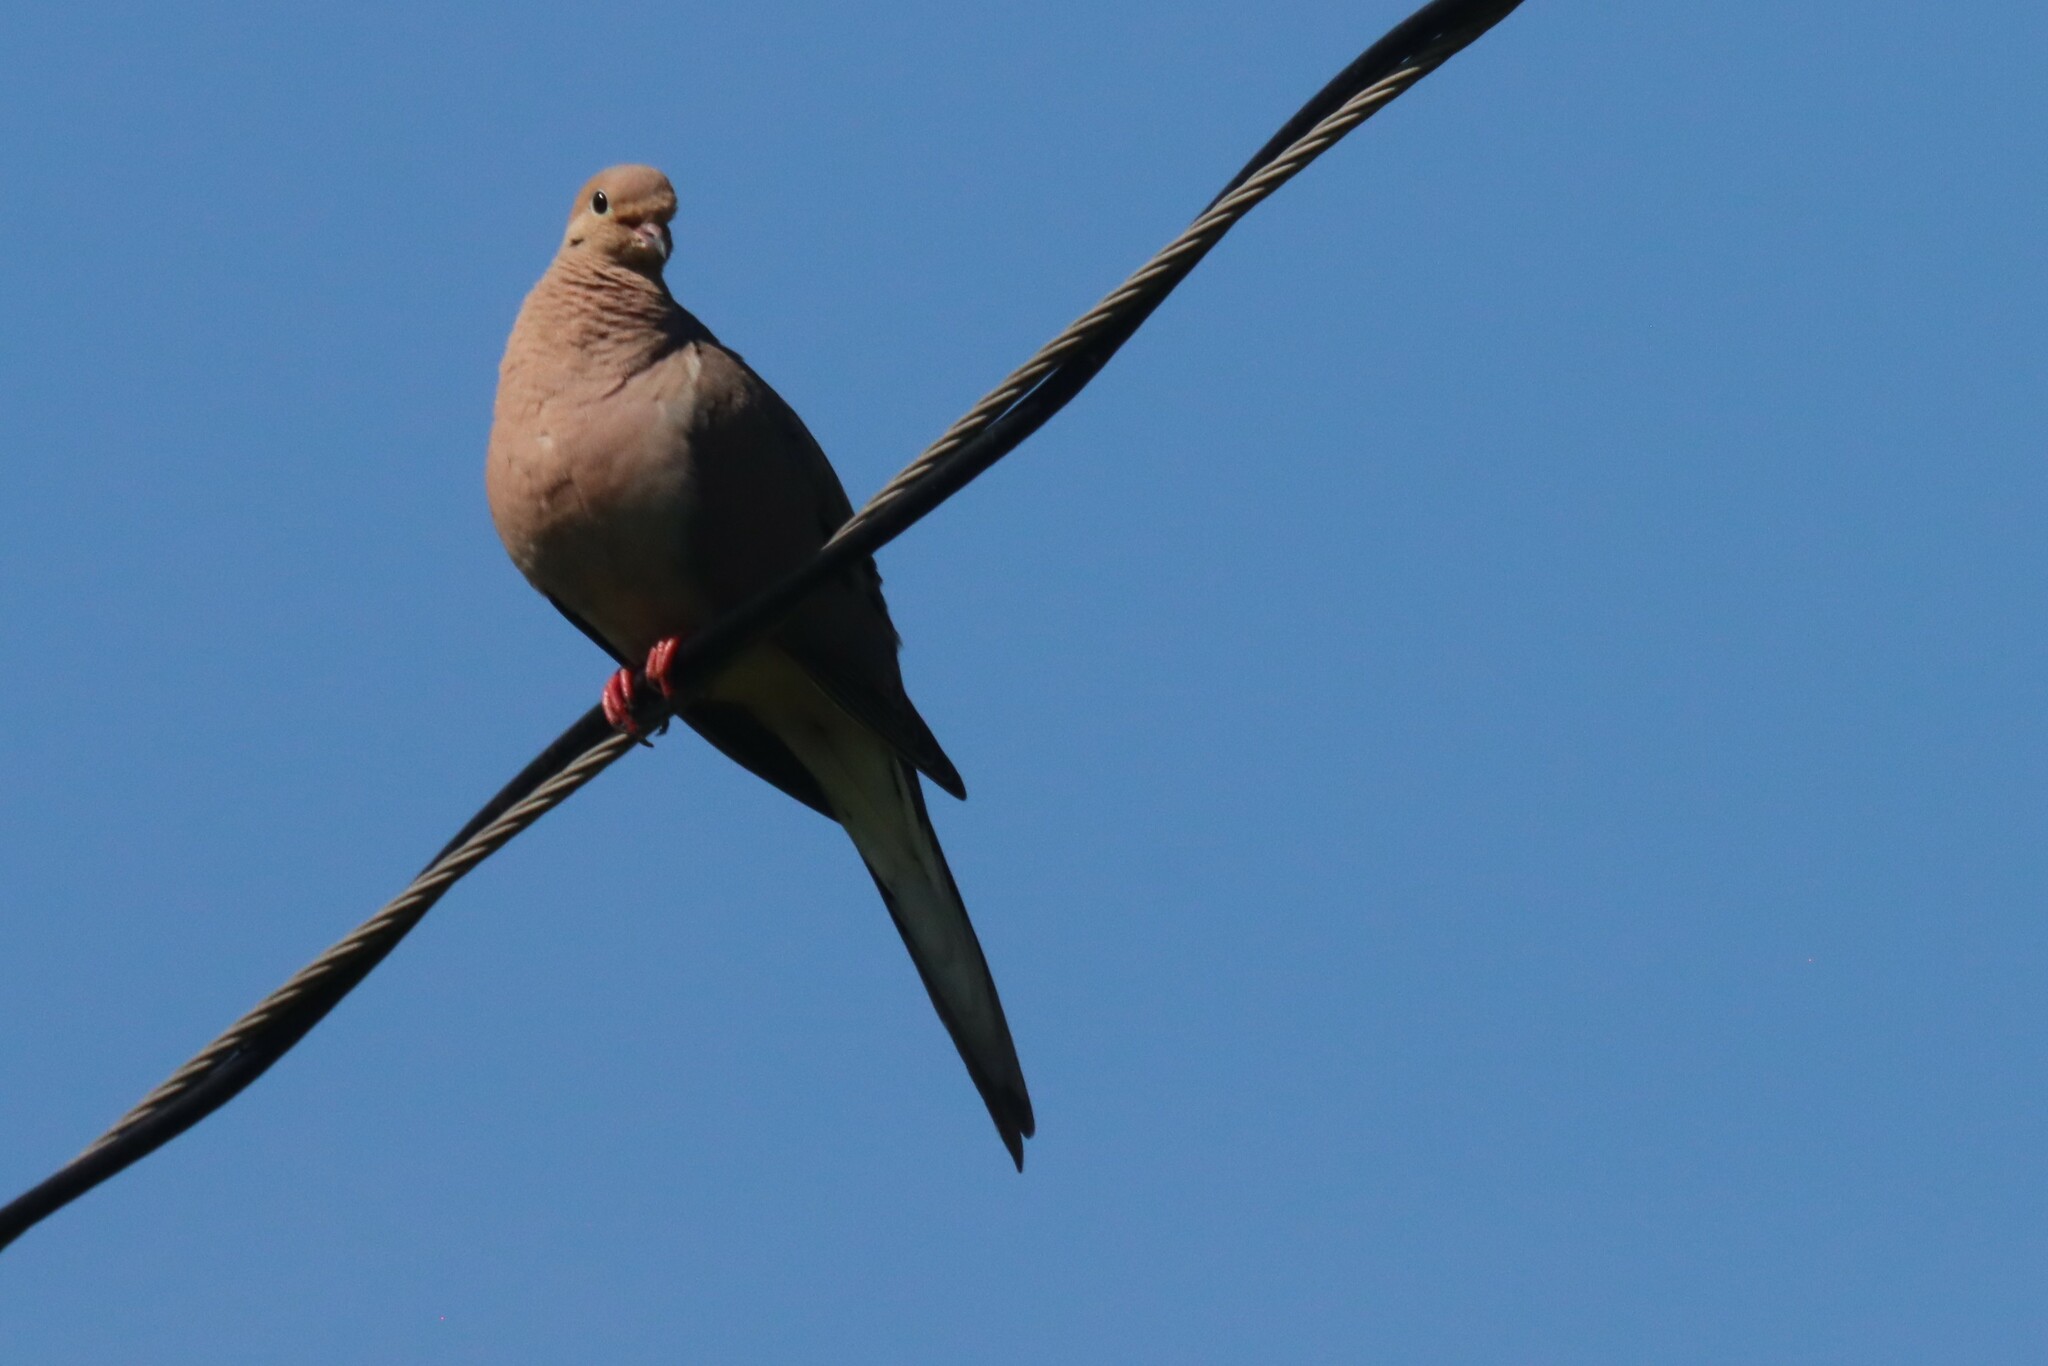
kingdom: Animalia
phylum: Chordata
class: Aves
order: Columbiformes
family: Columbidae
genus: Zenaida
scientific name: Zenaida macroura
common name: Mourning dove
